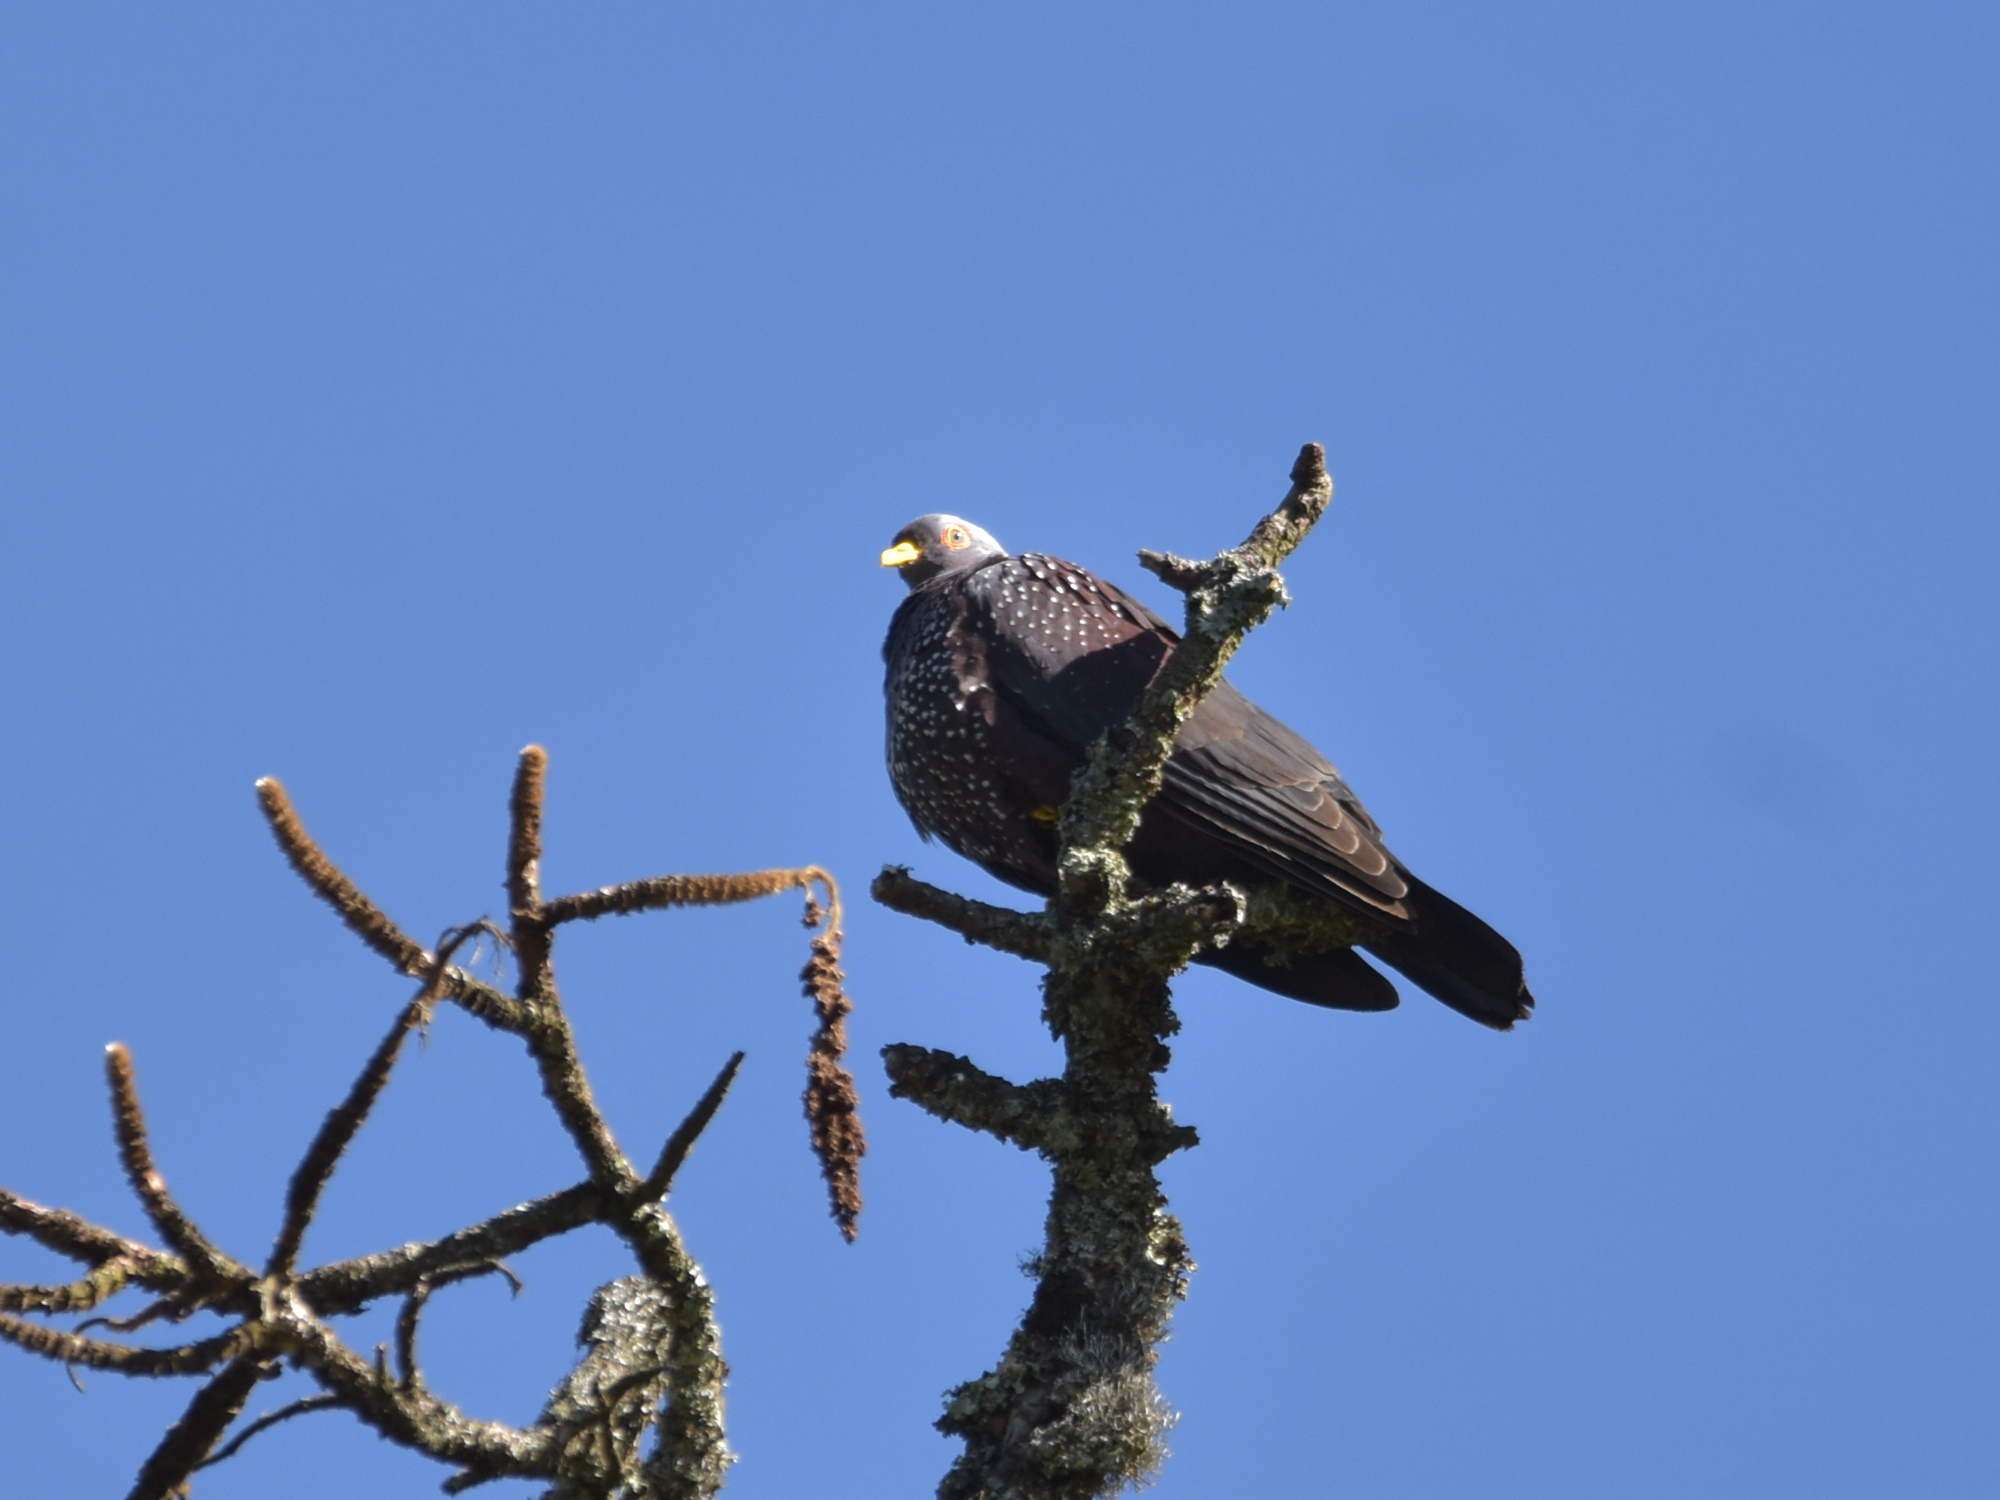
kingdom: Animalia
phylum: Chordata
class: Aves
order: Columbiformes
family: Columbidae
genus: Columba
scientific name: Columba arquatrix
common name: African olive pigeon
